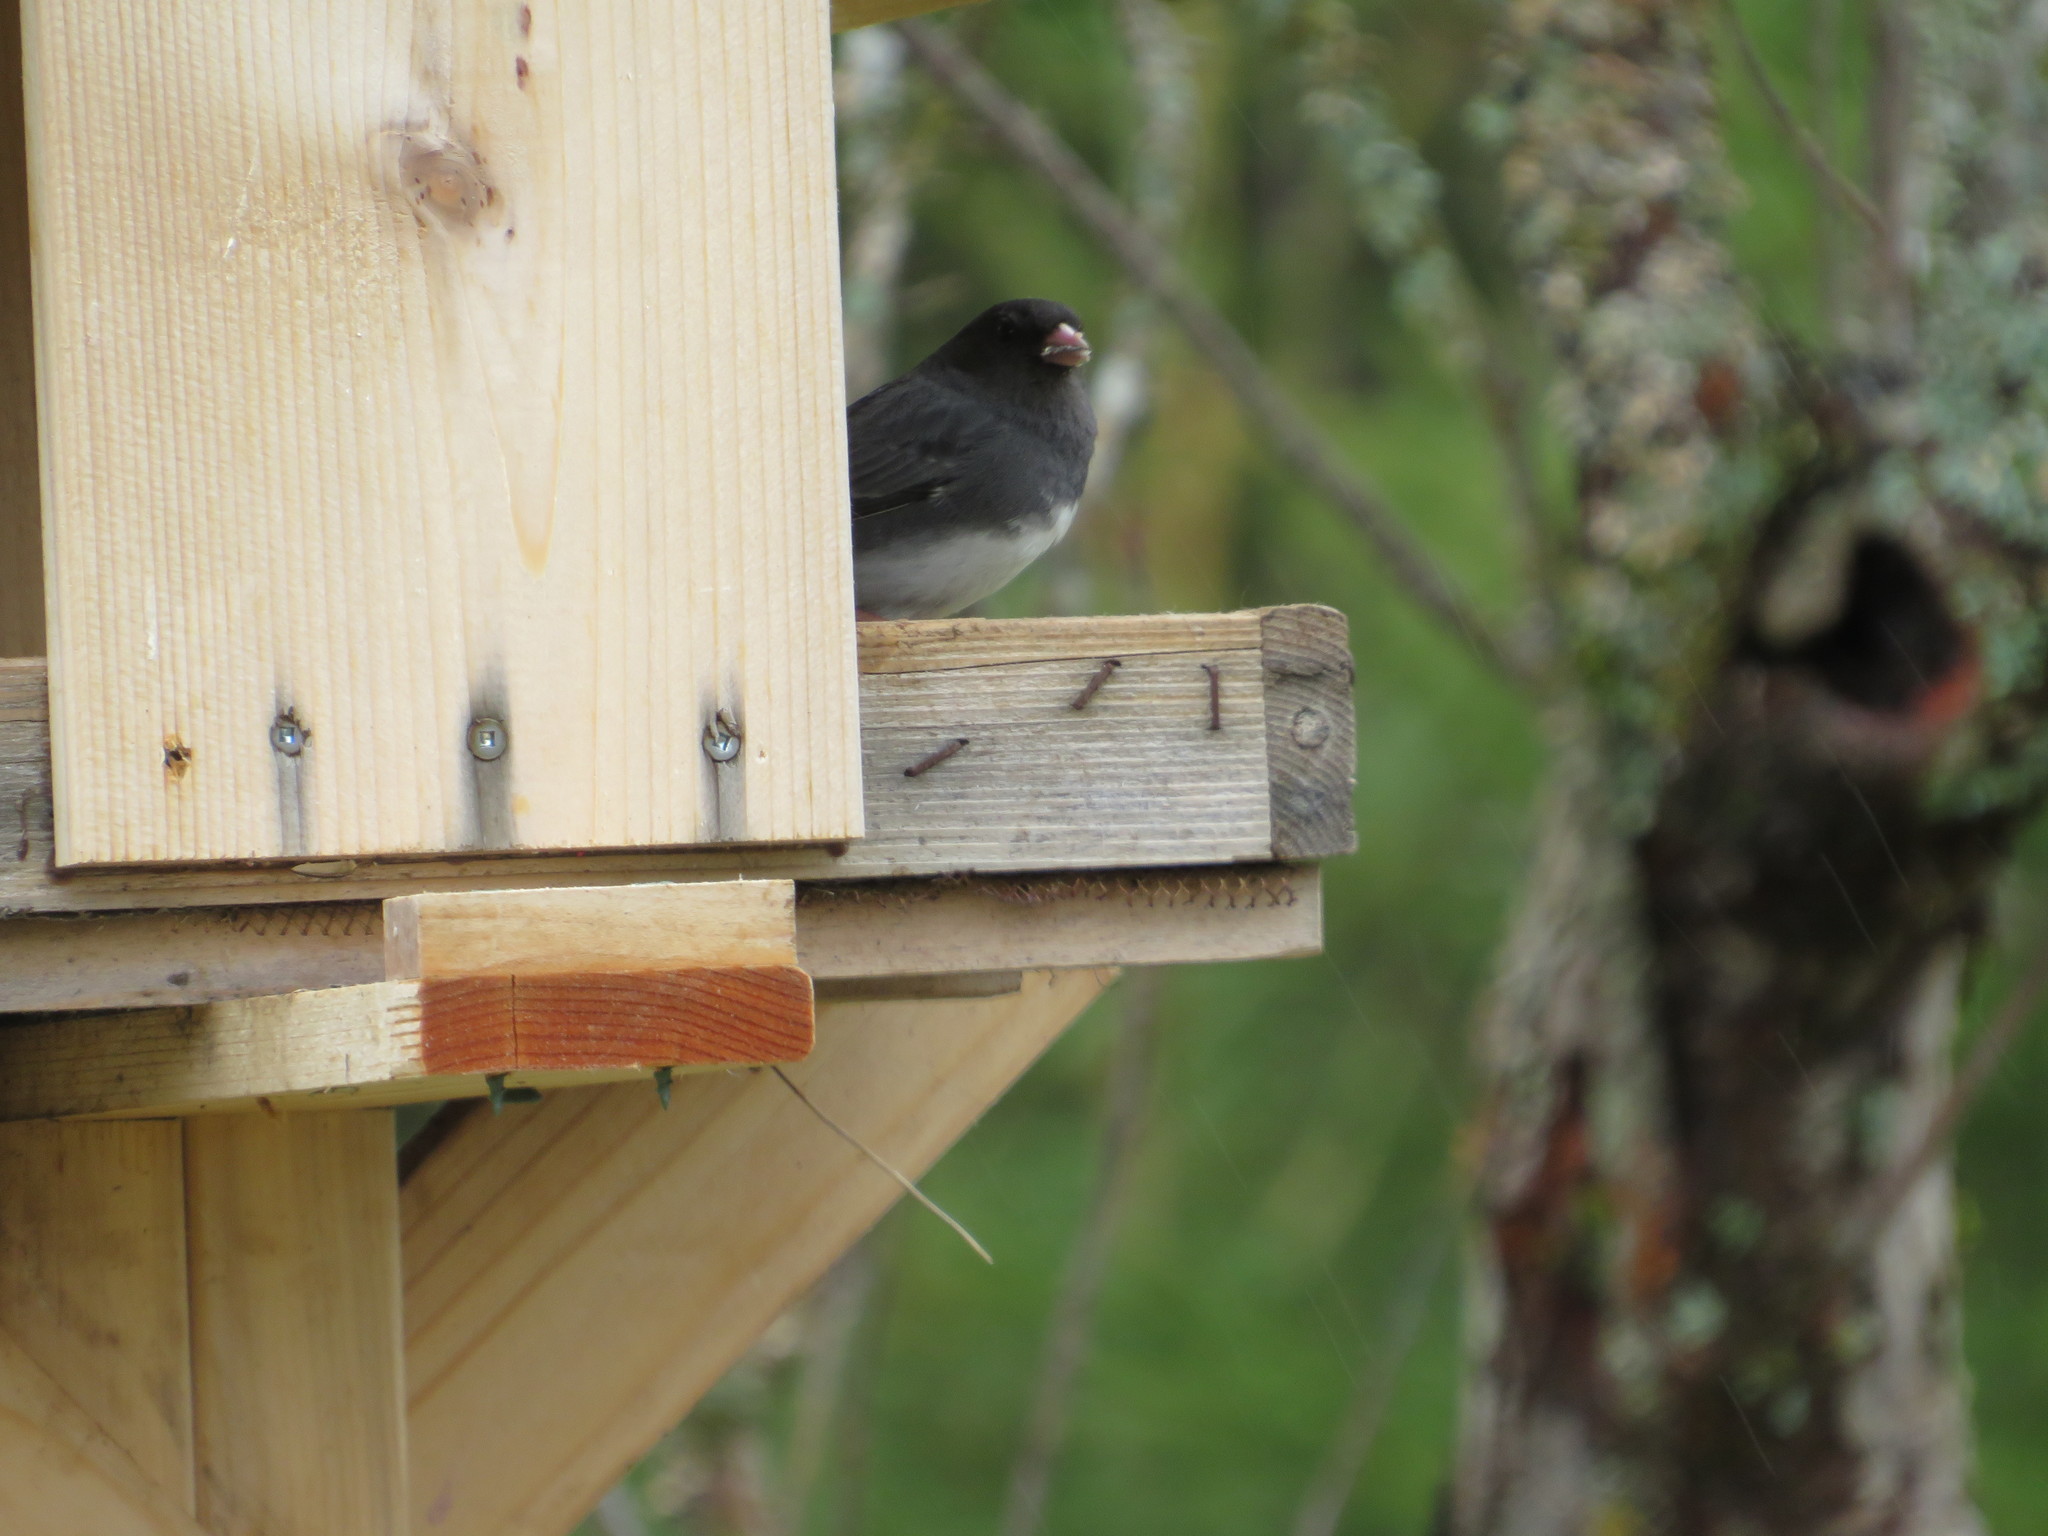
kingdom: Animalia
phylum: Chordata
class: Aves
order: Passeriformes
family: Passerellidae
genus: Junco
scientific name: Junco hyemalis
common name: Dark-eyed junco
